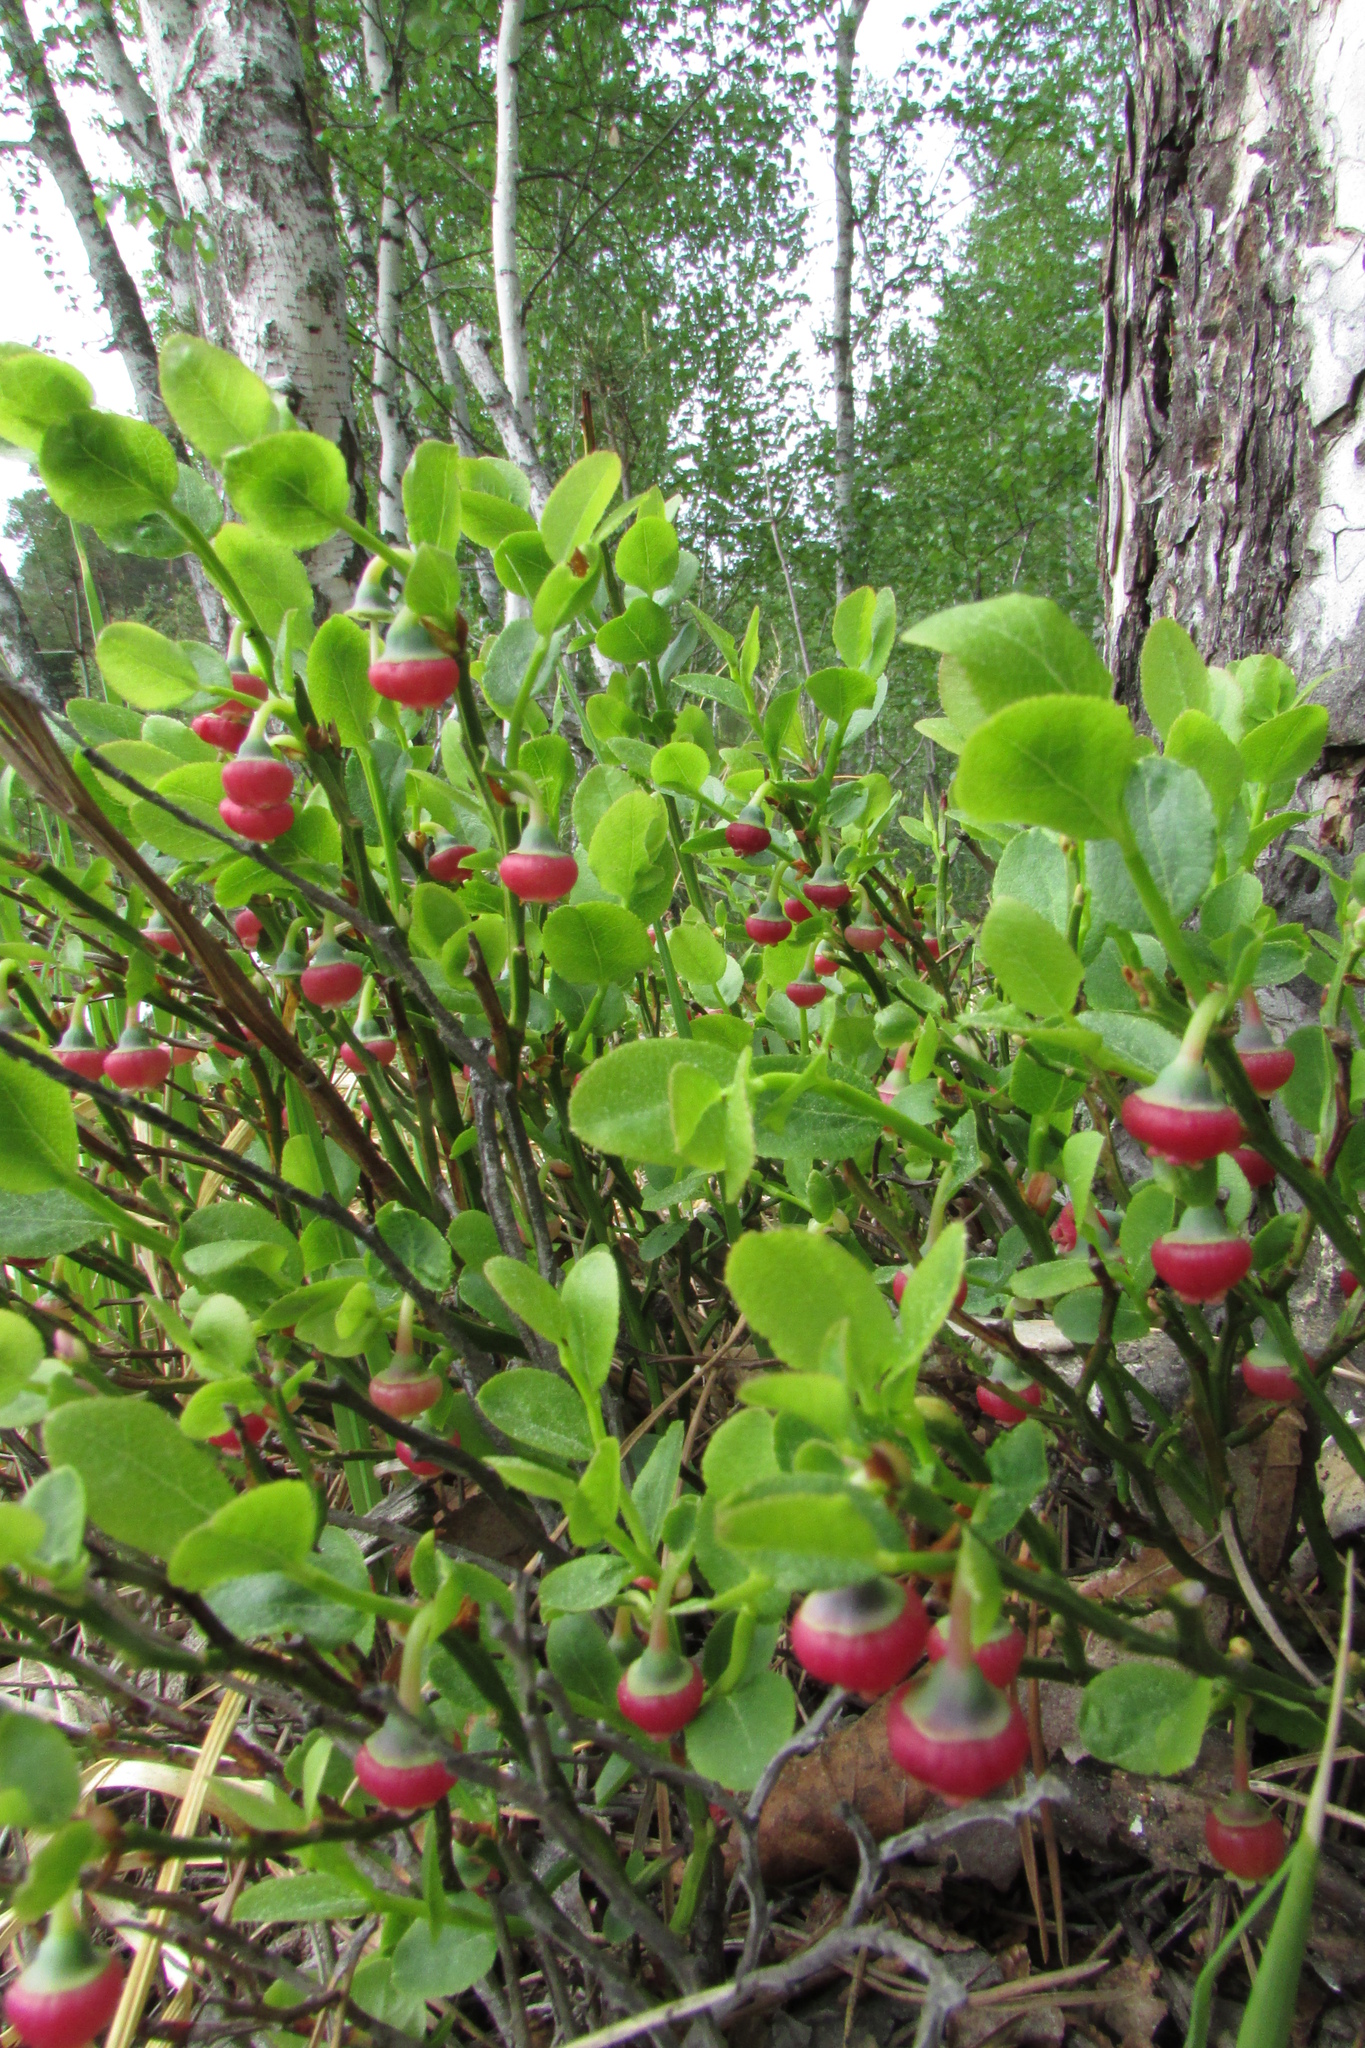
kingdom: Plantae
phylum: Tracheophyta
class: Magnoliopsida
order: Ericales
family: Ericaceae
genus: Vaccinium
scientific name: Vaccinium myrtillus
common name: Bilberry
